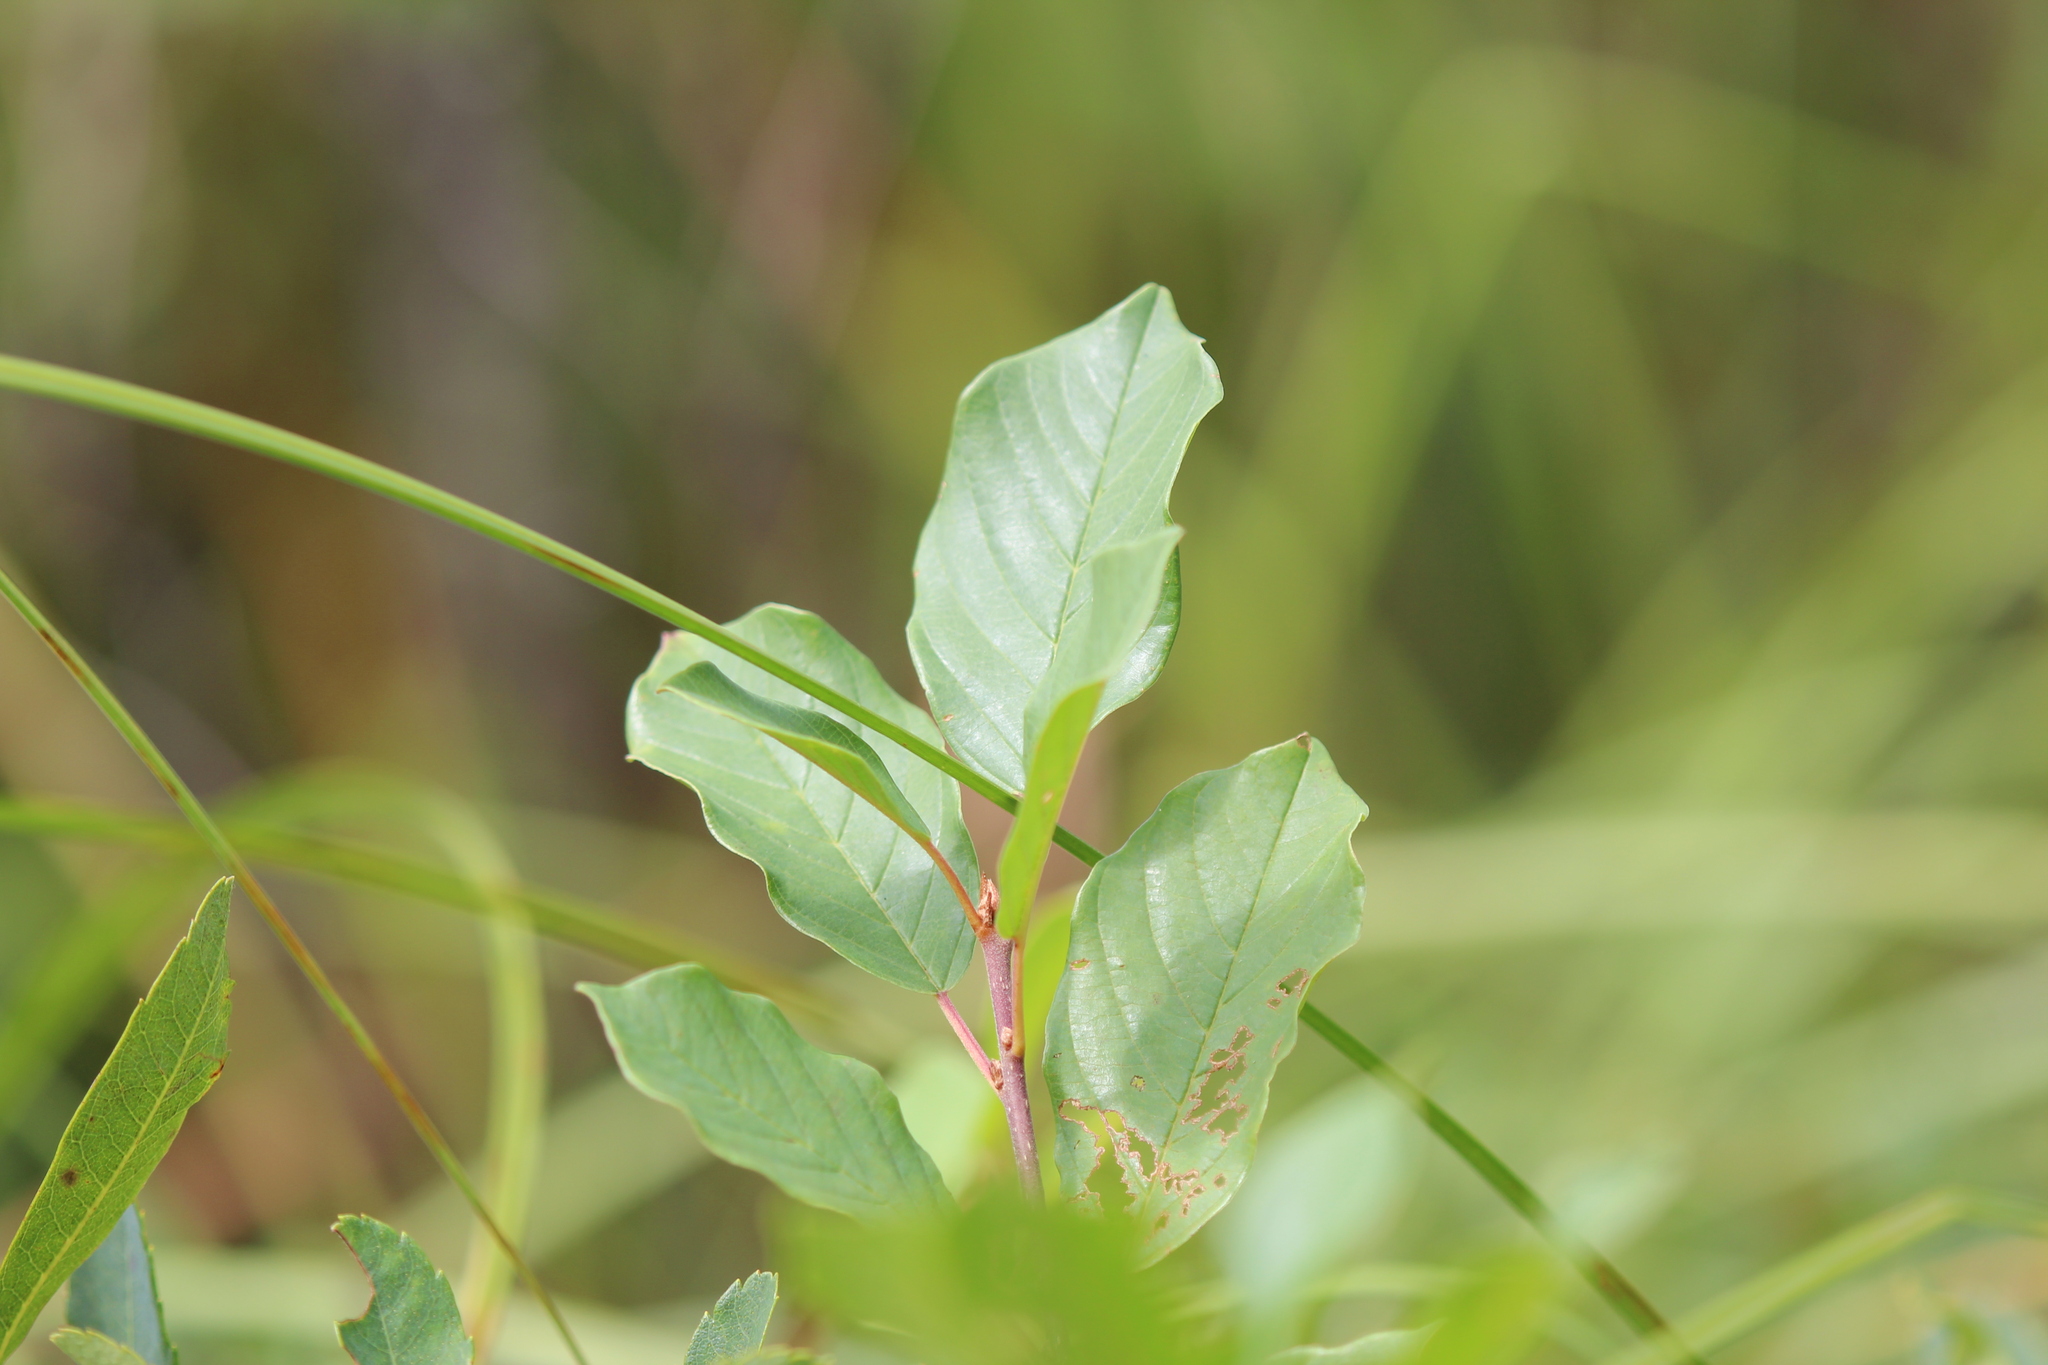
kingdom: Plantae
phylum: Tracheophyta
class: Magnoliopsida
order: Rosales
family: Rhamnaceae
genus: Frangula
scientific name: Frangula alnus
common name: Alder buckthorn
